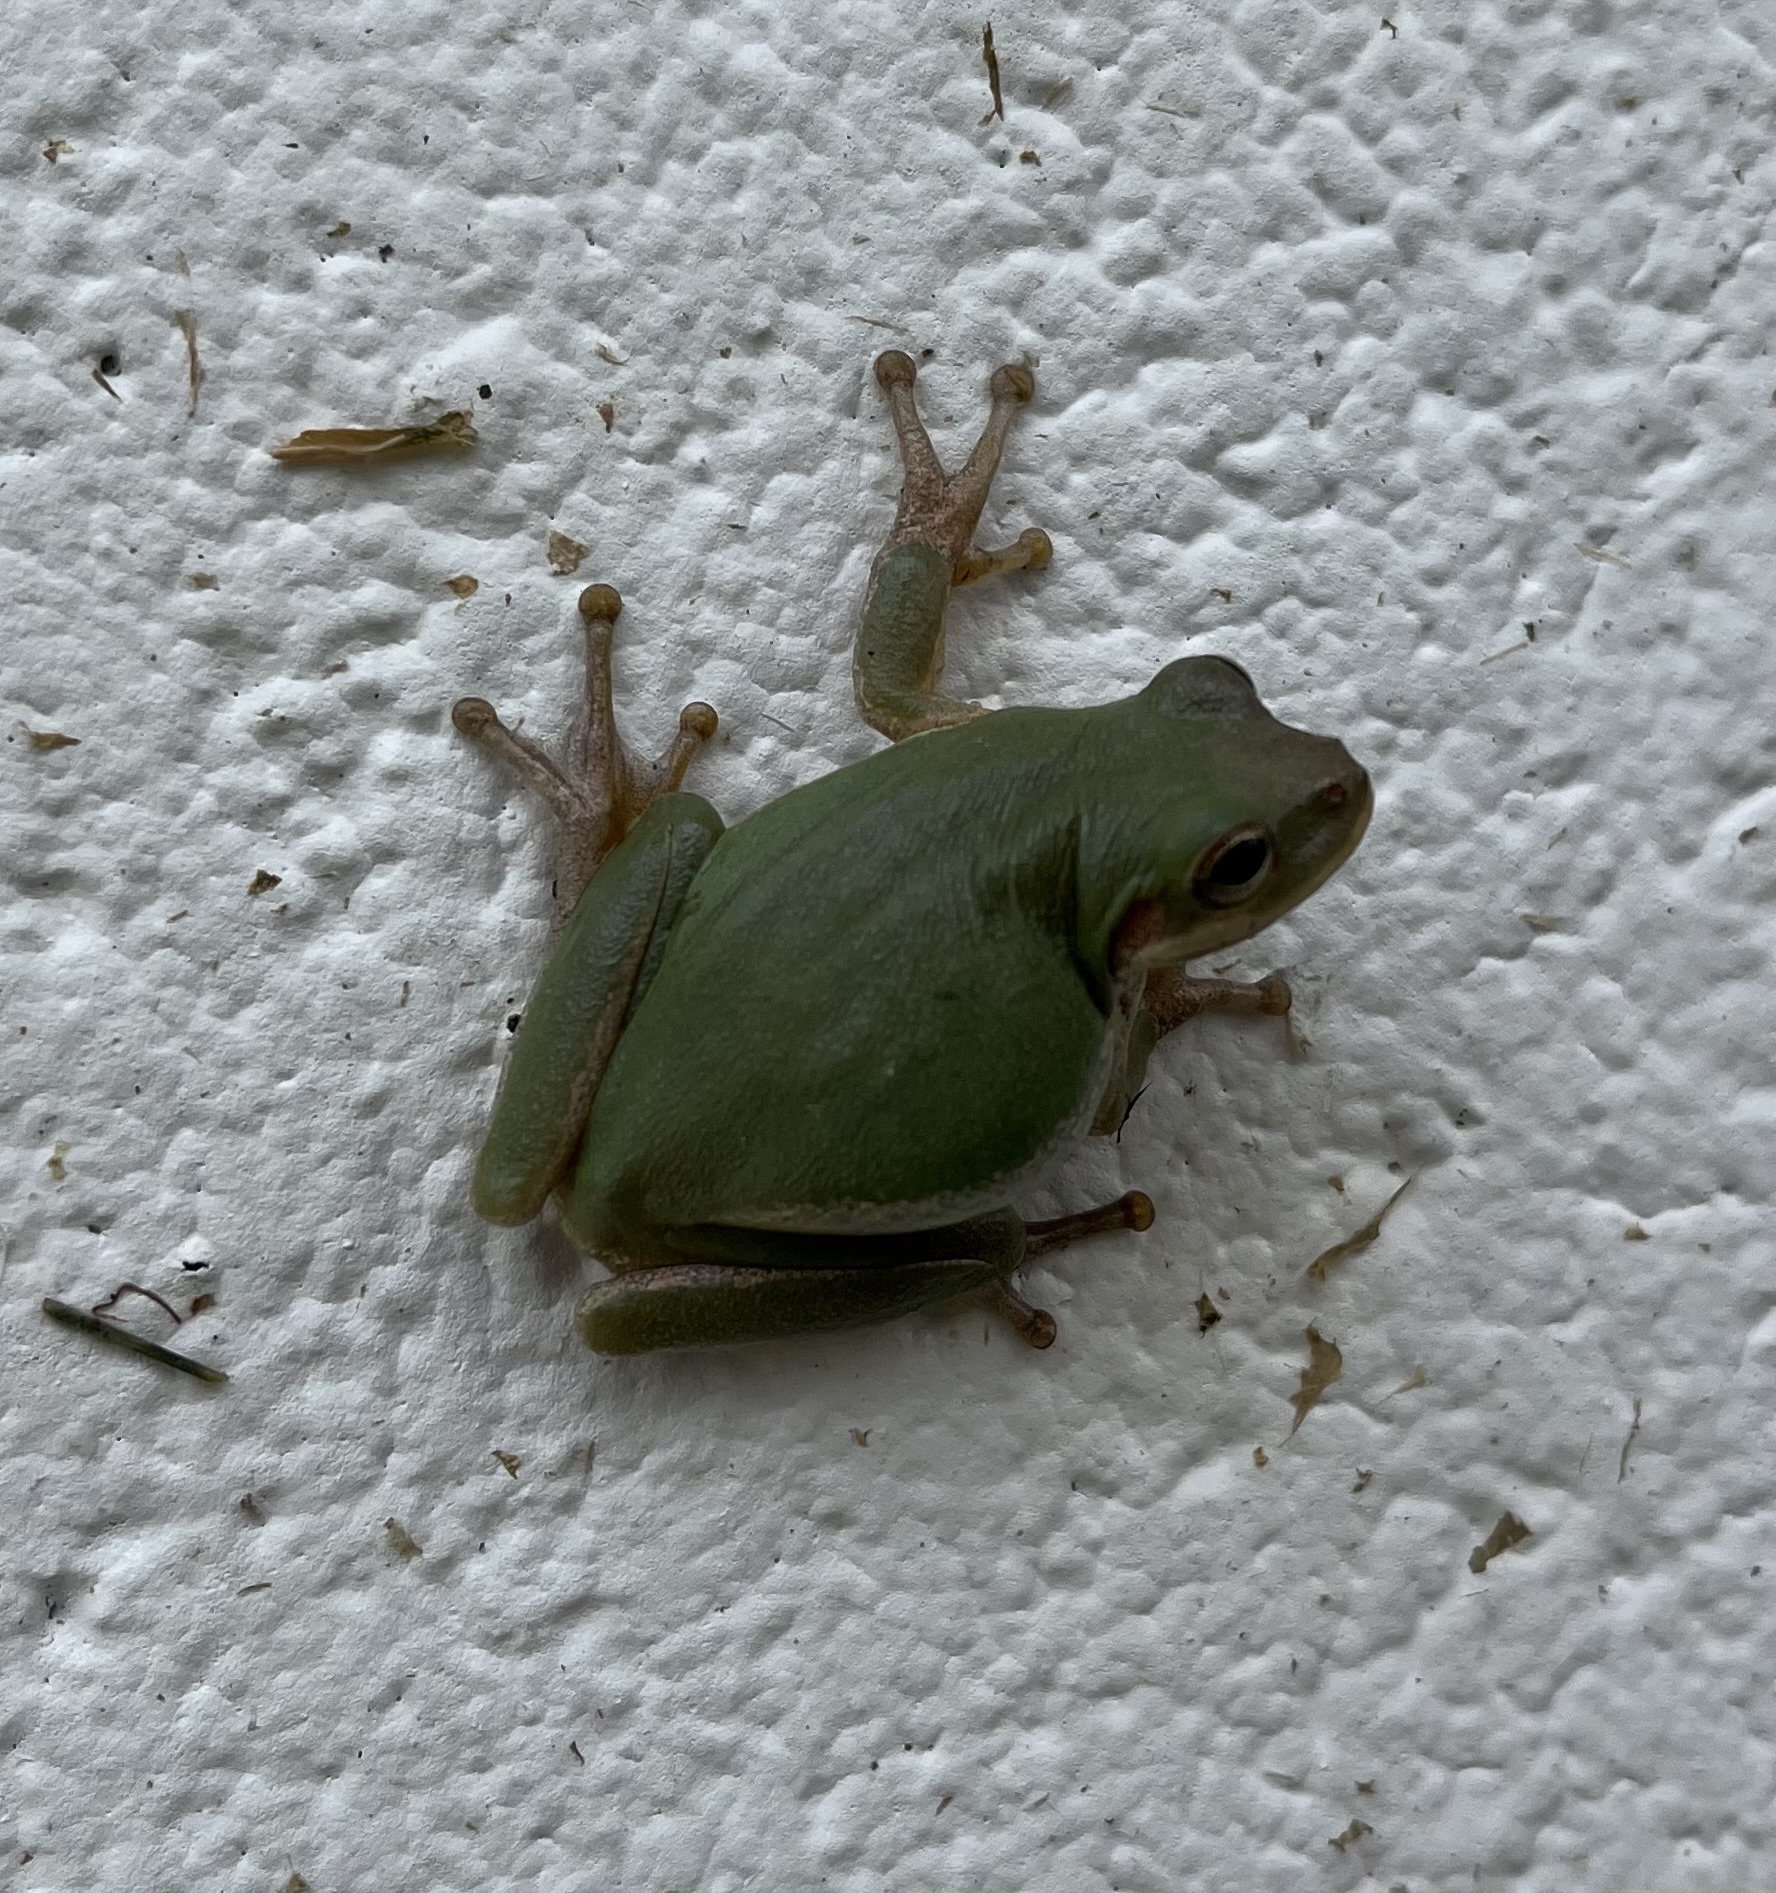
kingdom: Animalia
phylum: Chordata
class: Amphibia
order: Anura
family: Hylidae
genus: Dryophytes
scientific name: Dryophytes squirellus
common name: Squirrel treefrog
